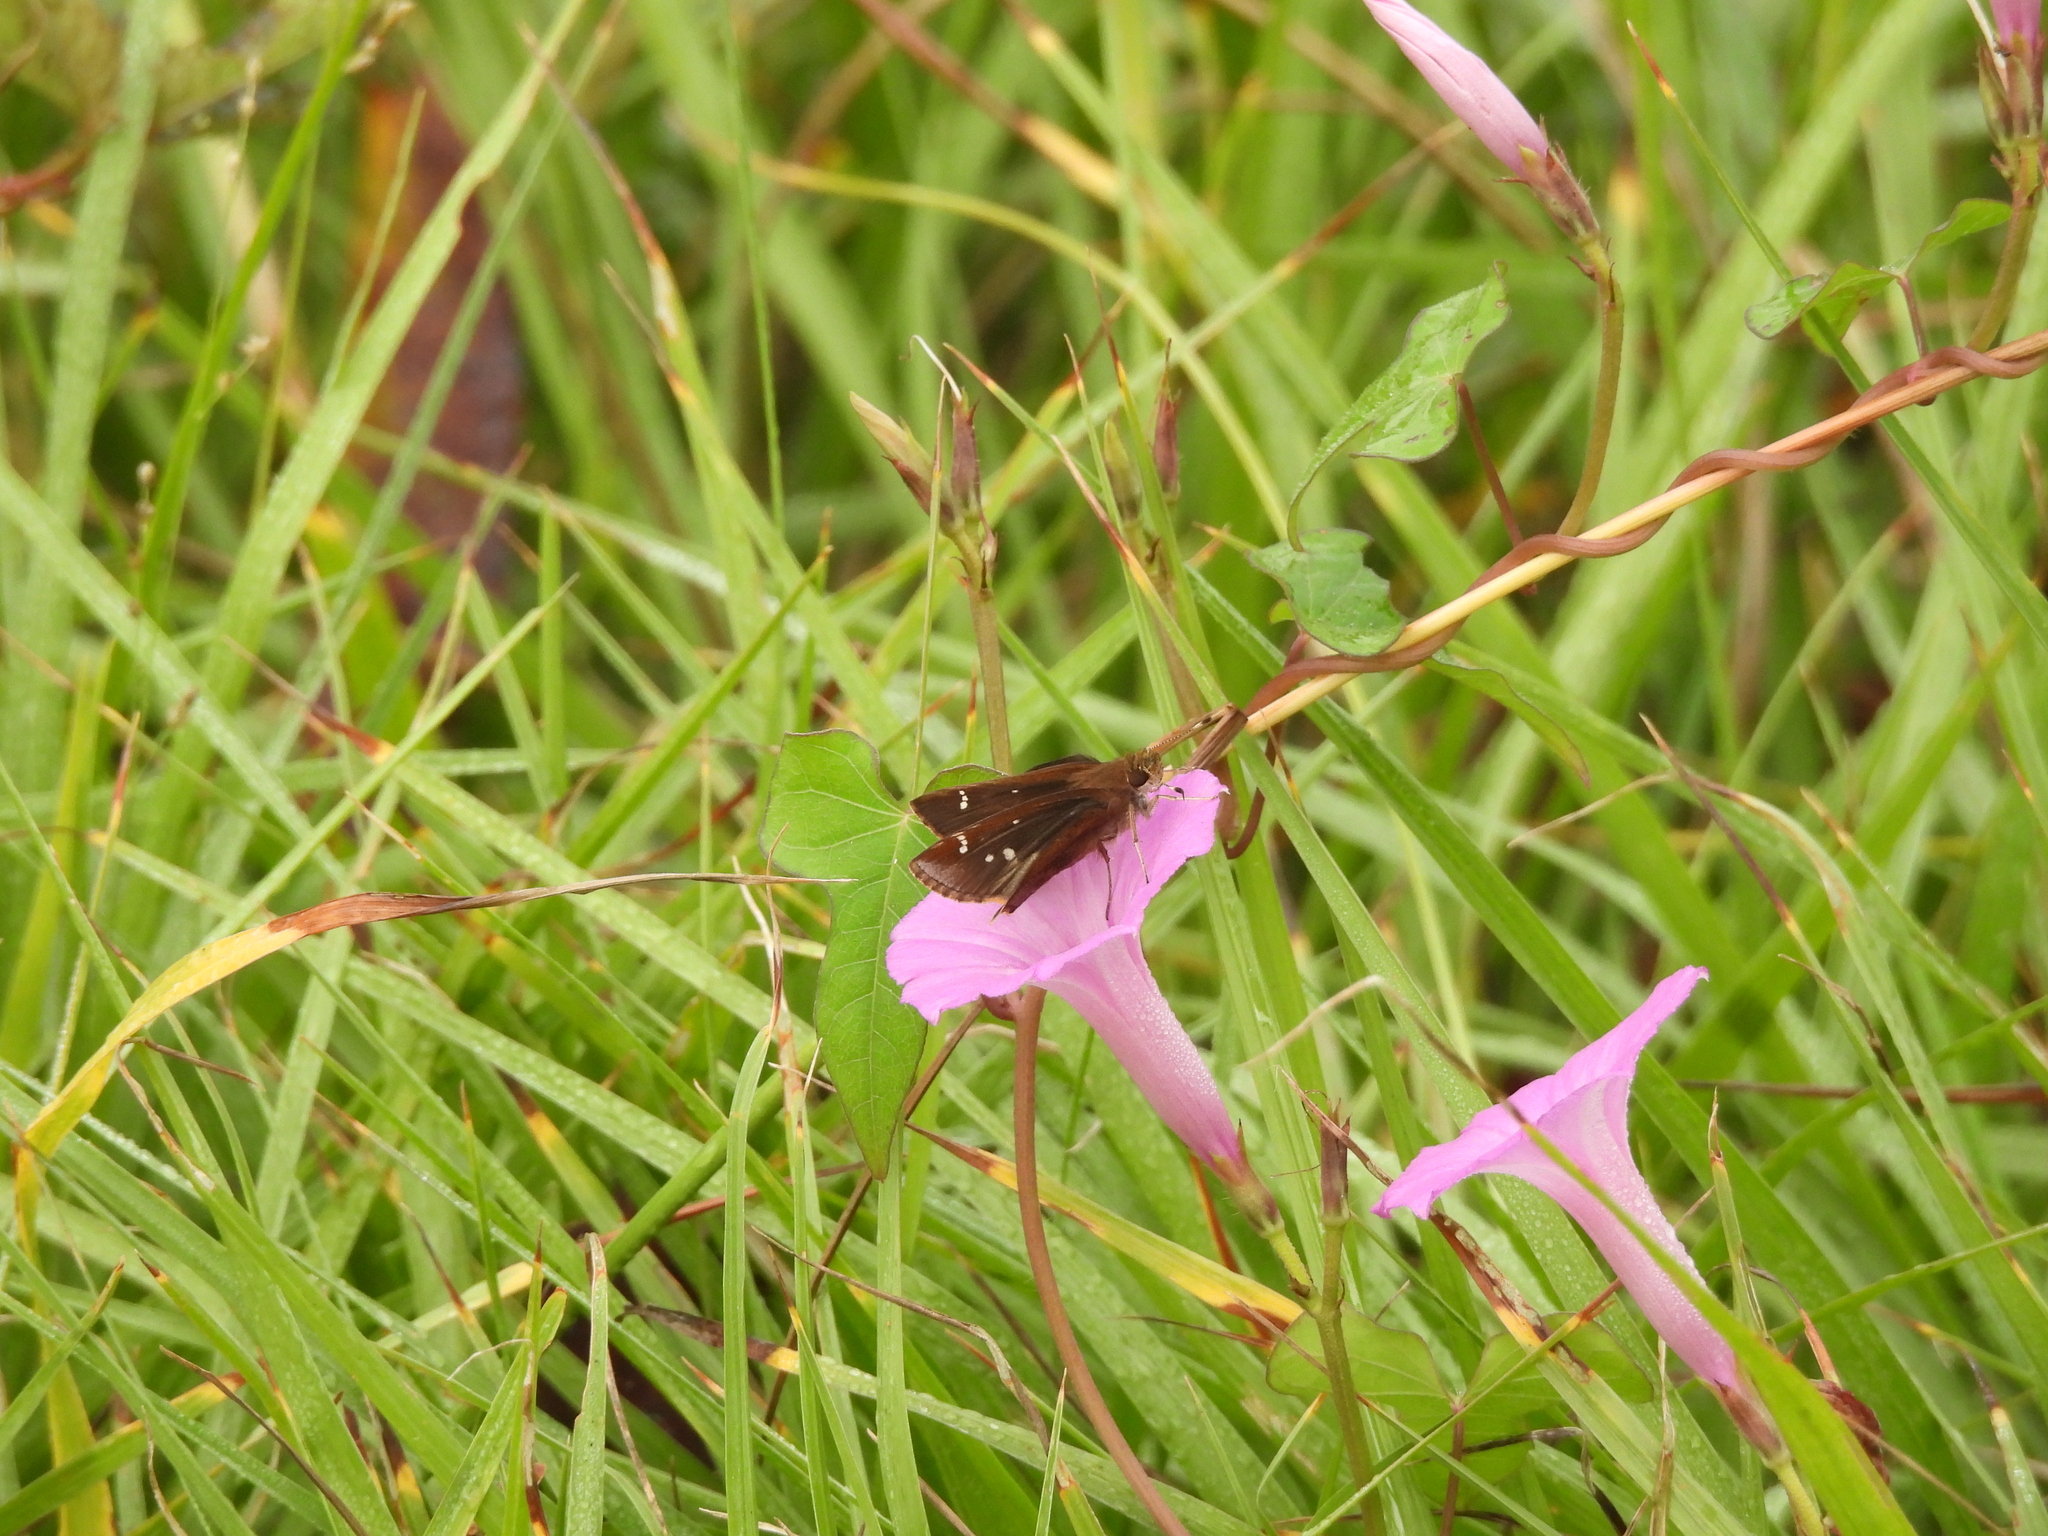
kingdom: Animalia
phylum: Arthropoda
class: Insecta
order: Lepidoptera
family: Hesperiidae
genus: Lerema
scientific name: Lerema accius
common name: Clouded skipper
